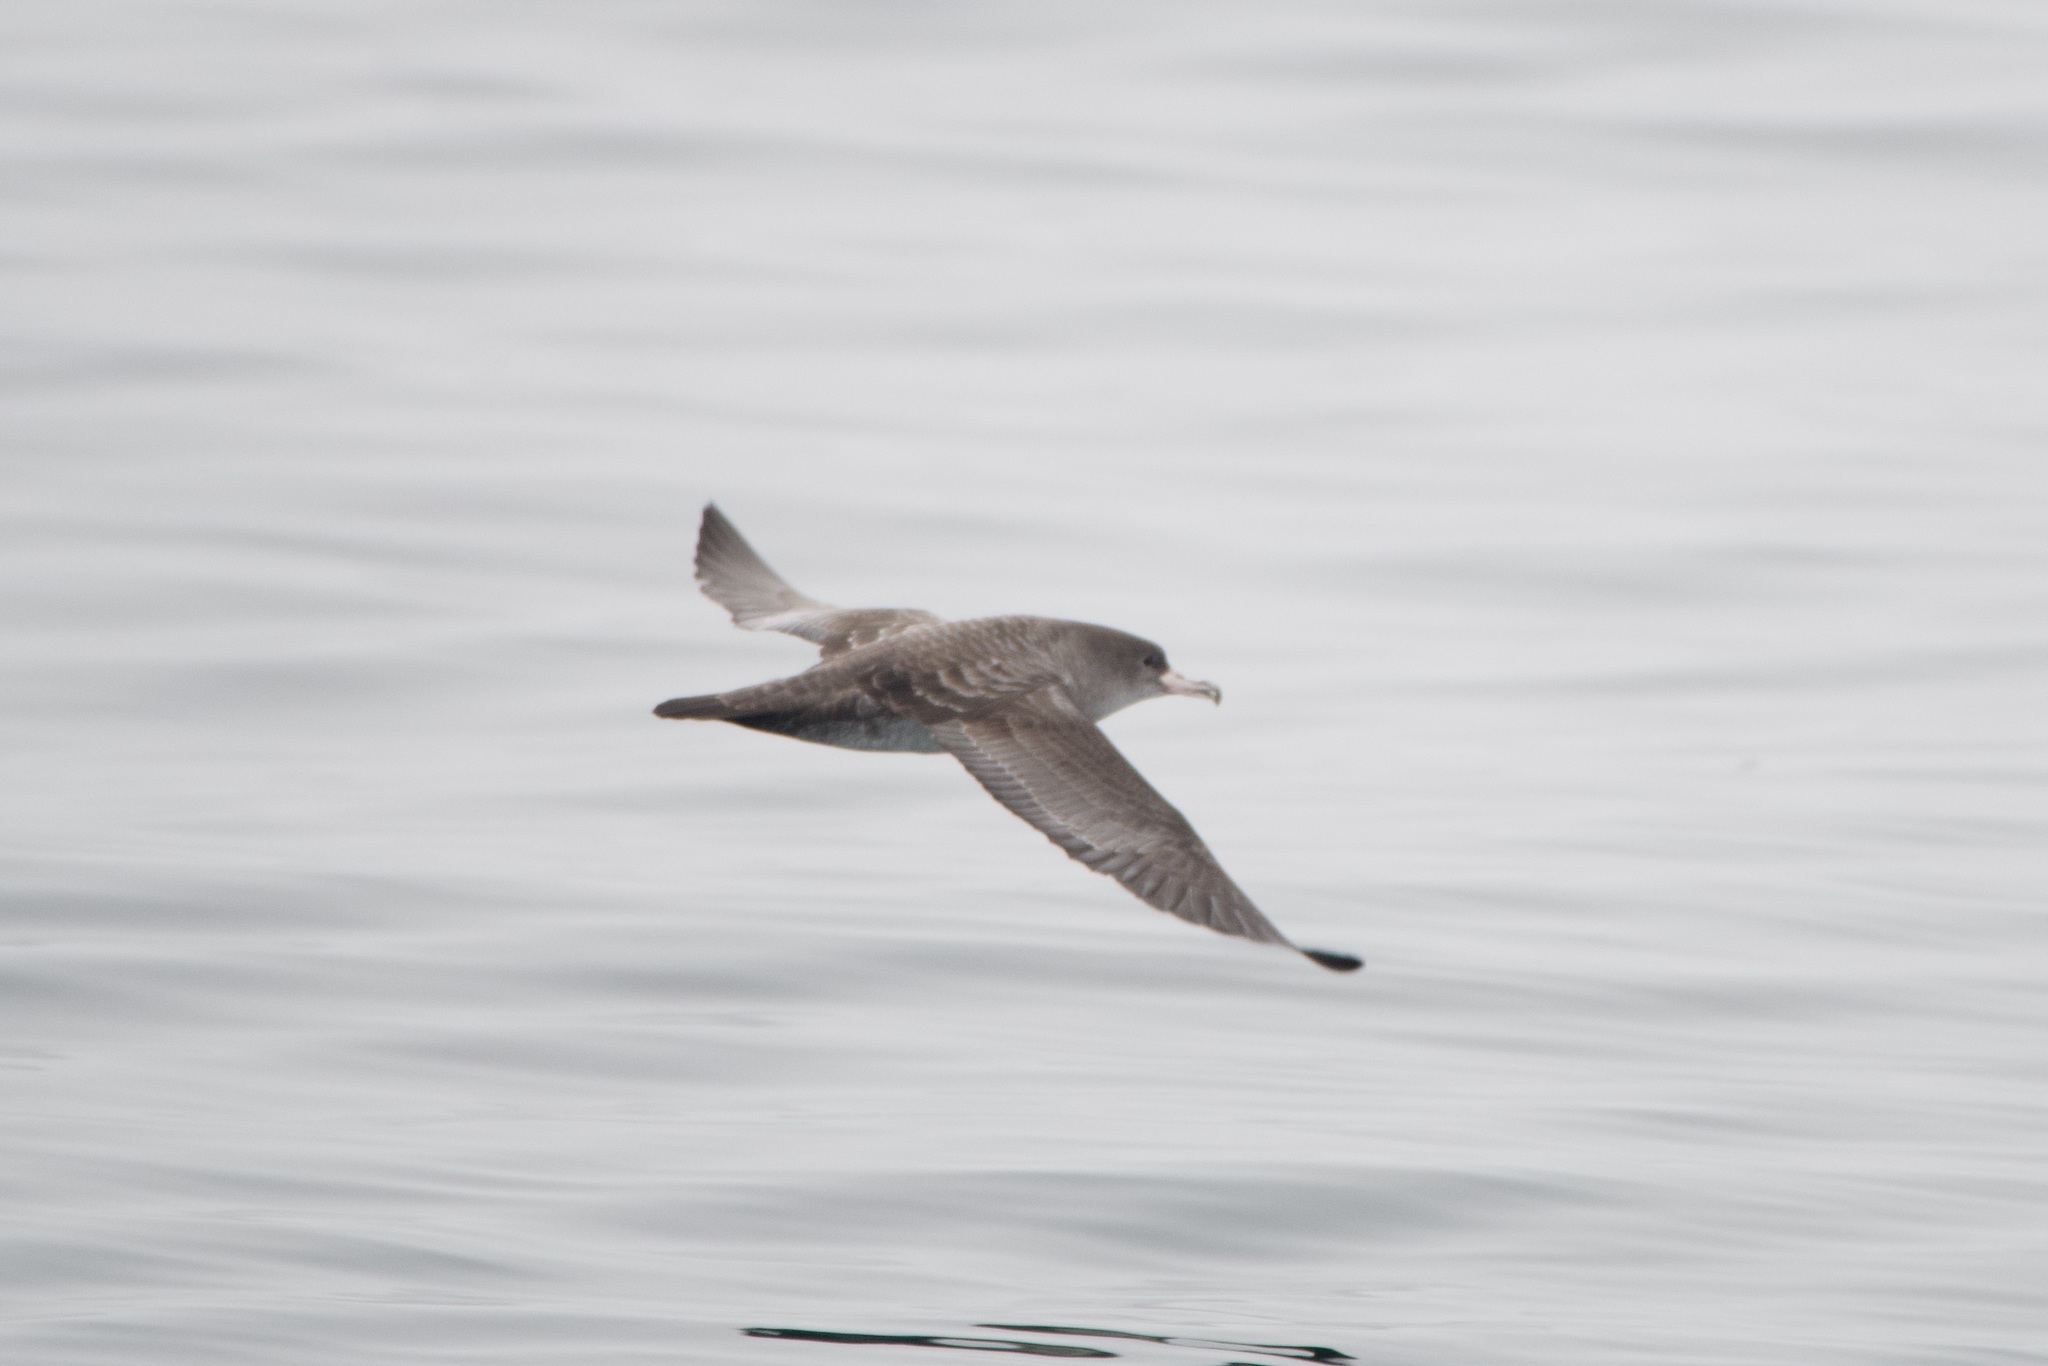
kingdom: Animalia
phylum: Chordata
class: Aves
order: Procellariiformes
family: Procellariidae
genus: Puffinus
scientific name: Puffinus creatopus
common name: Pink-footed shearwater
